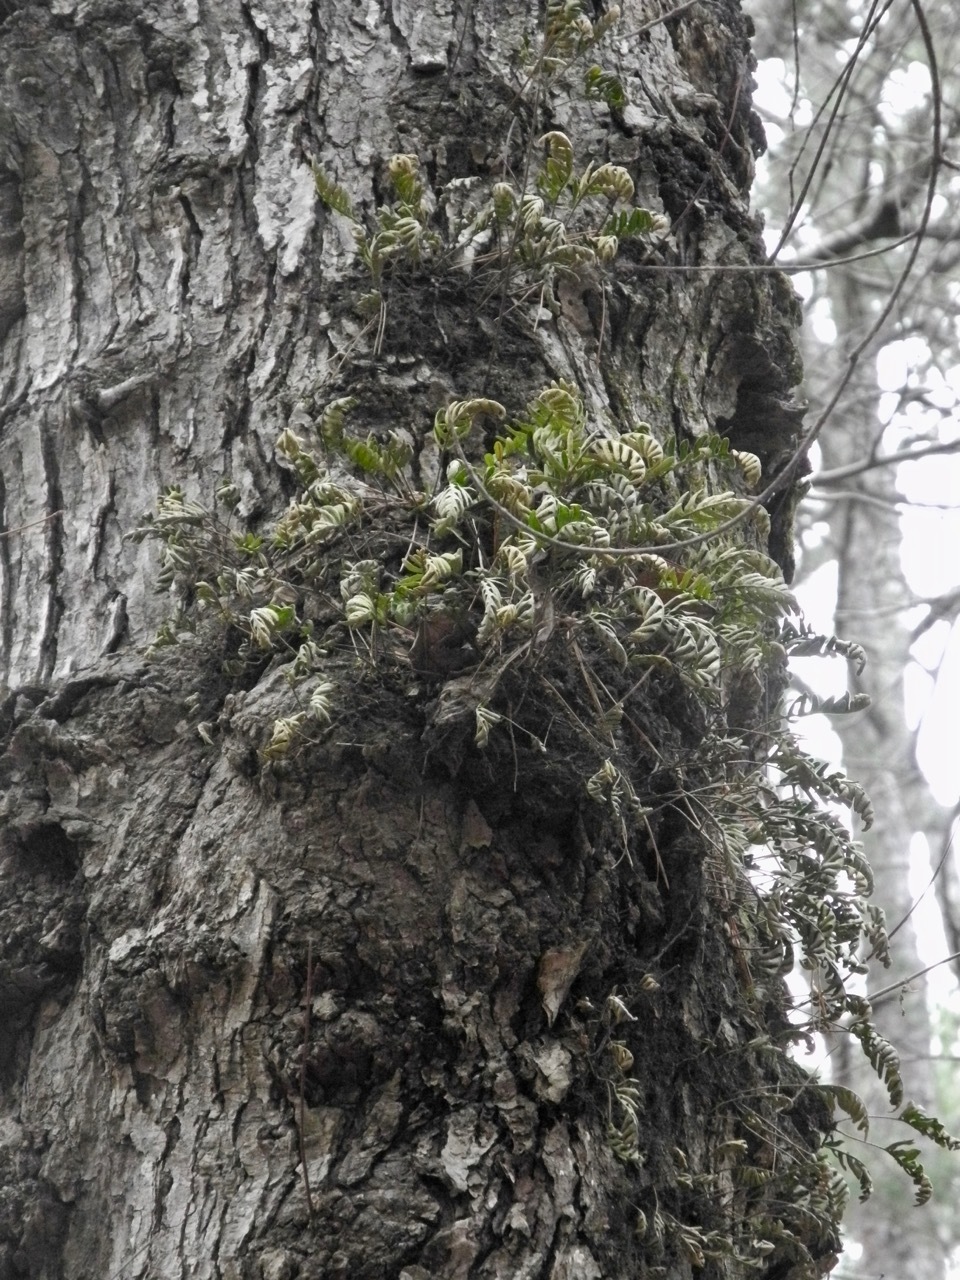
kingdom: Plantae
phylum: Tracheophyta
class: Polypodiopsida
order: Polypodiales
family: Polypodiaceae
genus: Pleopeltis
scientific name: Pleopeltis michauxiana
